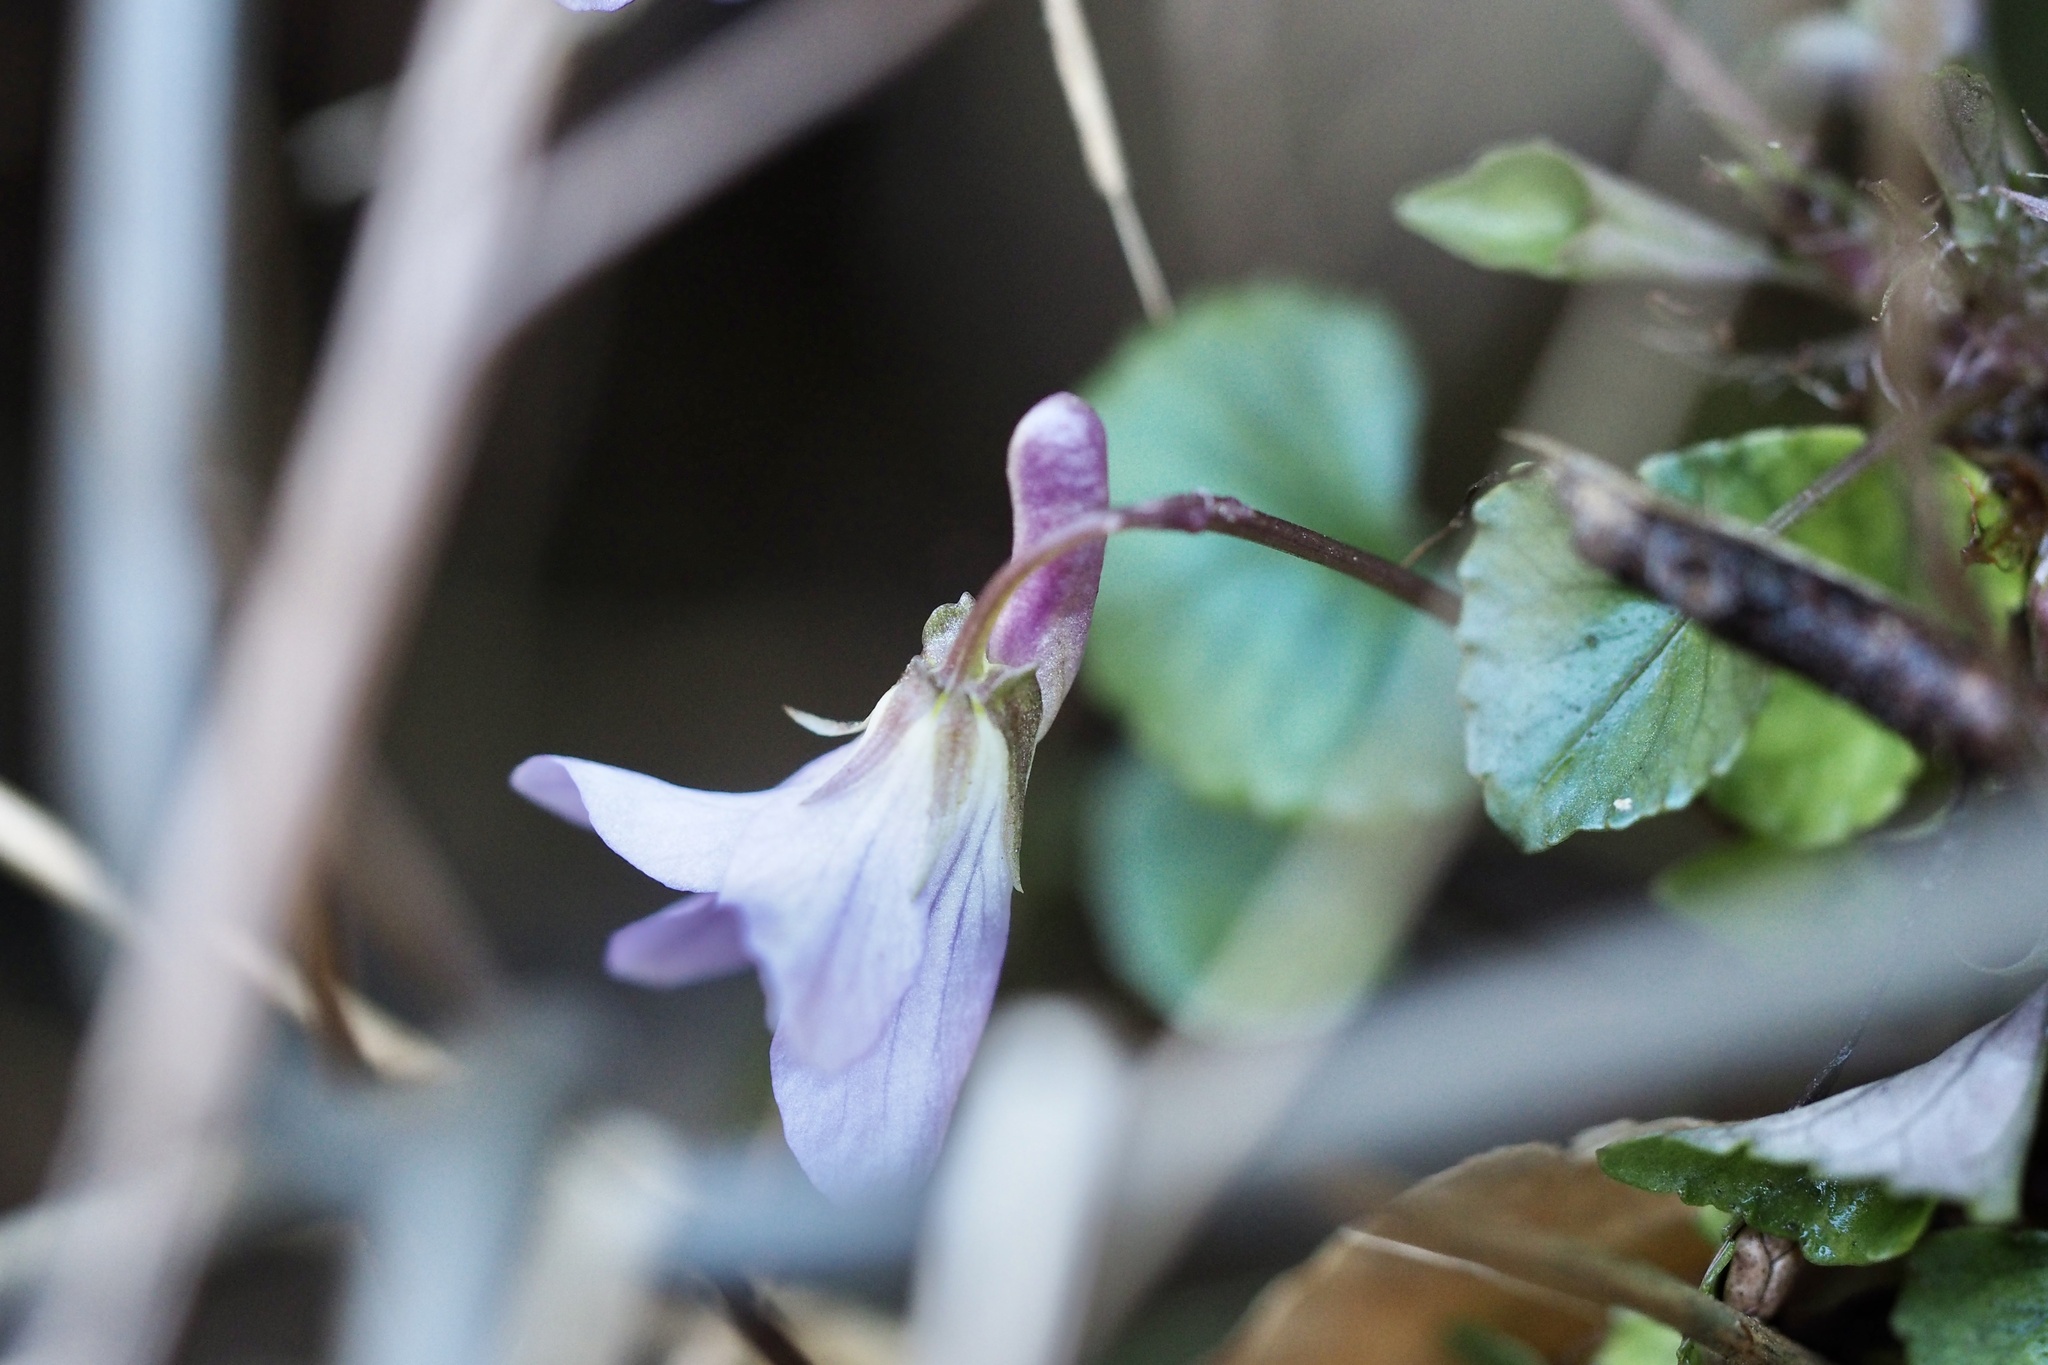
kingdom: Plantae
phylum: Tracheophyta
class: Magnoliopsida
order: Malpighiales
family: Violaceae
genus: Viola
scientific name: Viola grypoceras
